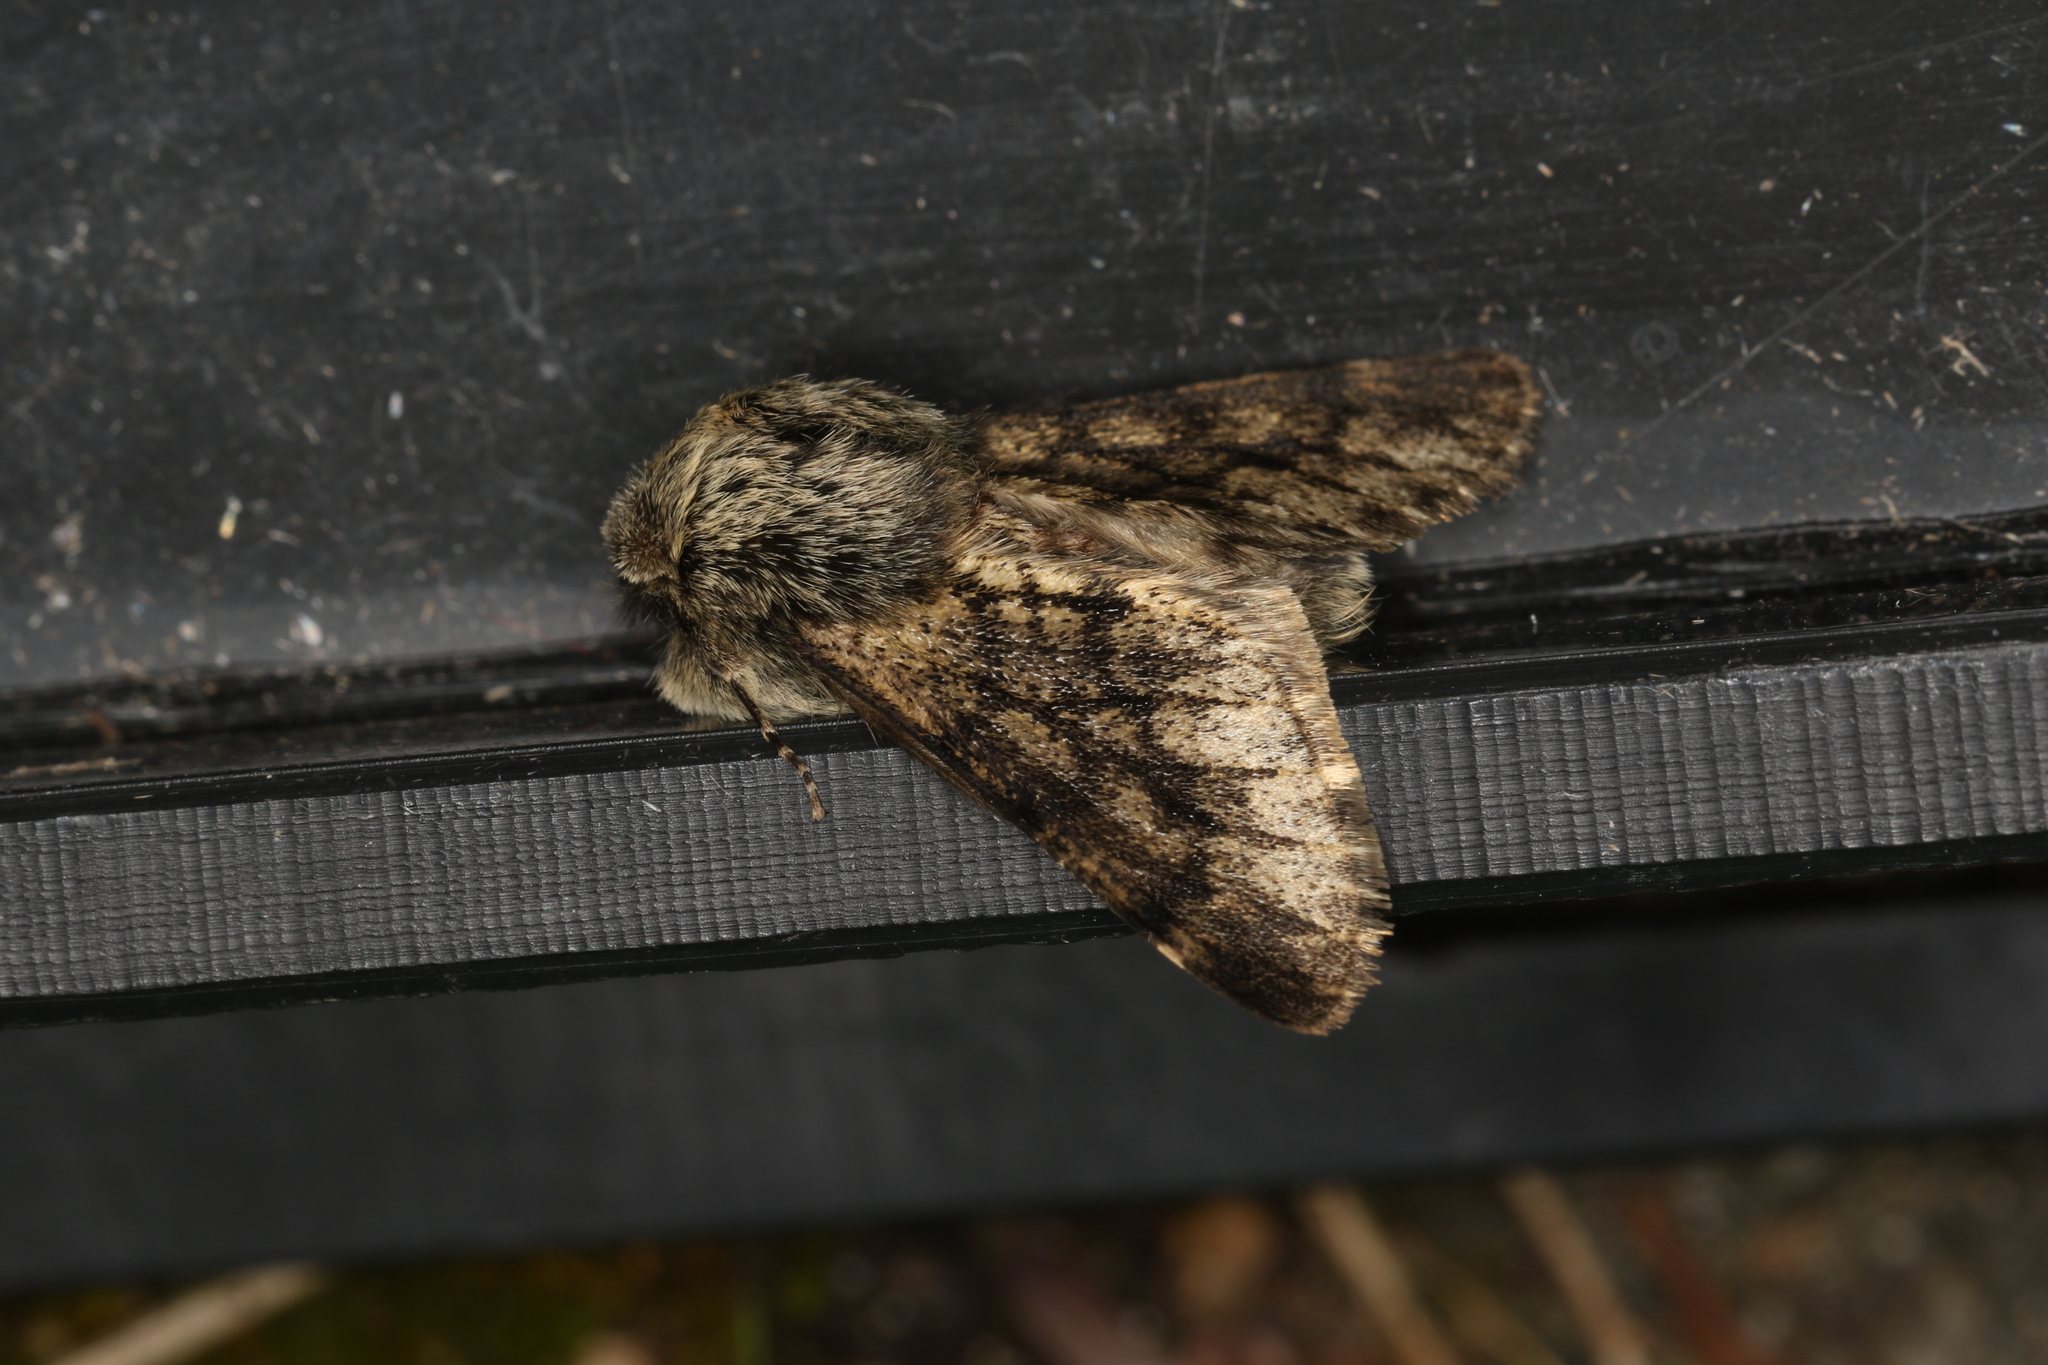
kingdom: Animalia
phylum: Arthropoda
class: Insecta
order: Lepidoptera
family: Geometridae
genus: Apocheima
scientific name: Apocheima hispidaria
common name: Small brindled beauty
